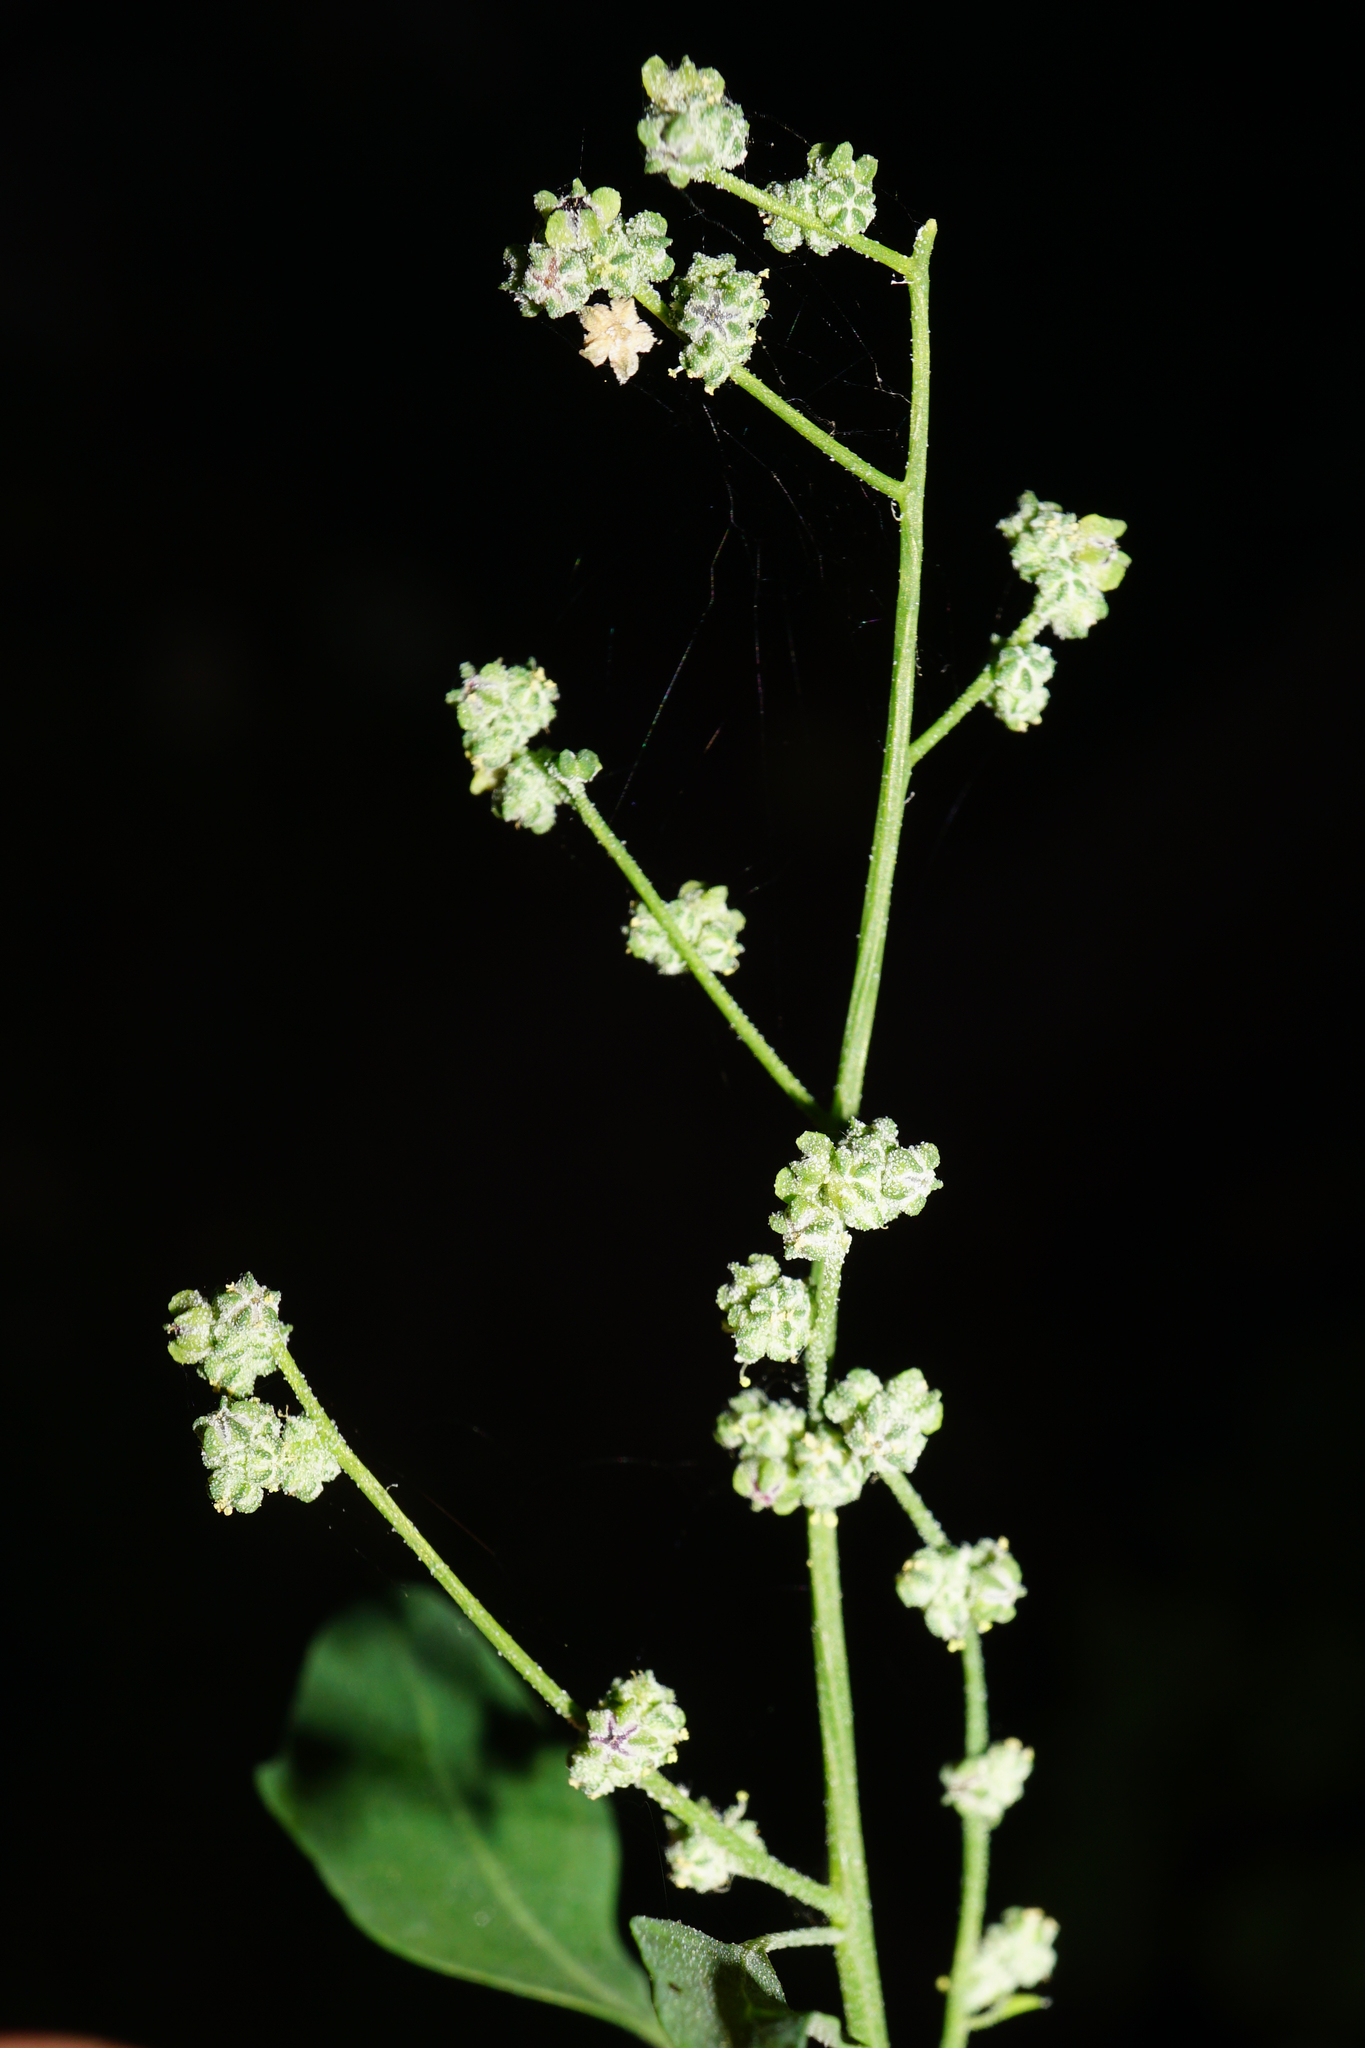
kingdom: Plantae
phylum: Tracheophyta
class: Magnoliopsida
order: Caryophyllales
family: Amaranthaceae
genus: Chenopodium
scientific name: Chenopodium opulifolium
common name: Grey goosefoot
